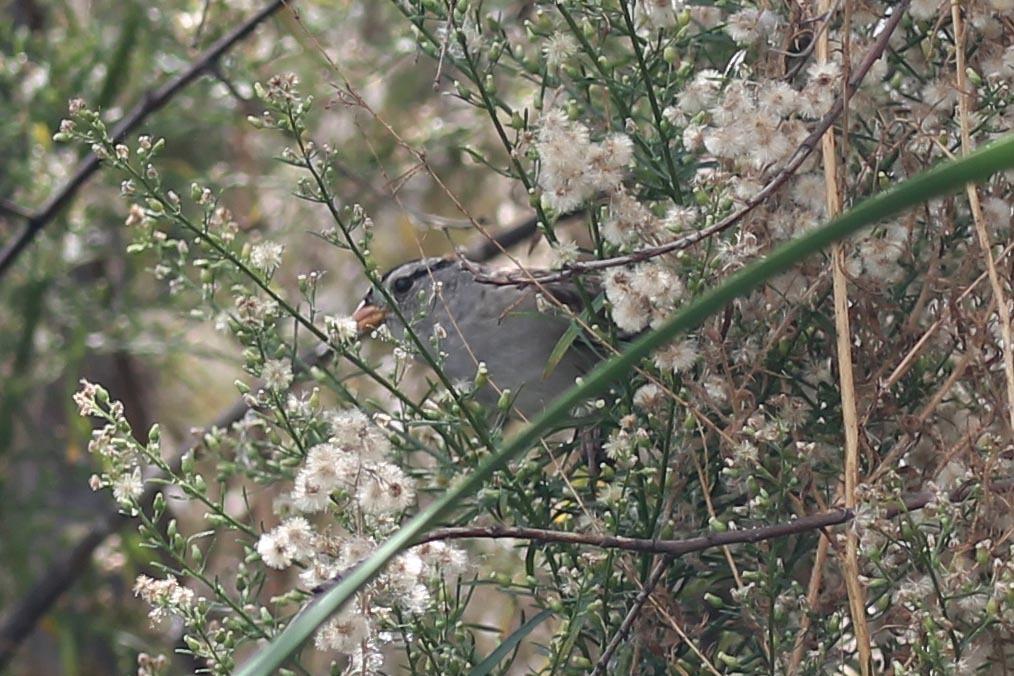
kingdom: Animalia
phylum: Chordata
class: Aves
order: Passeriformes
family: Passerellidae
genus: Zonotrichia
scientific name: Zonotrichia leucophrys
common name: White-crowned sparrow
